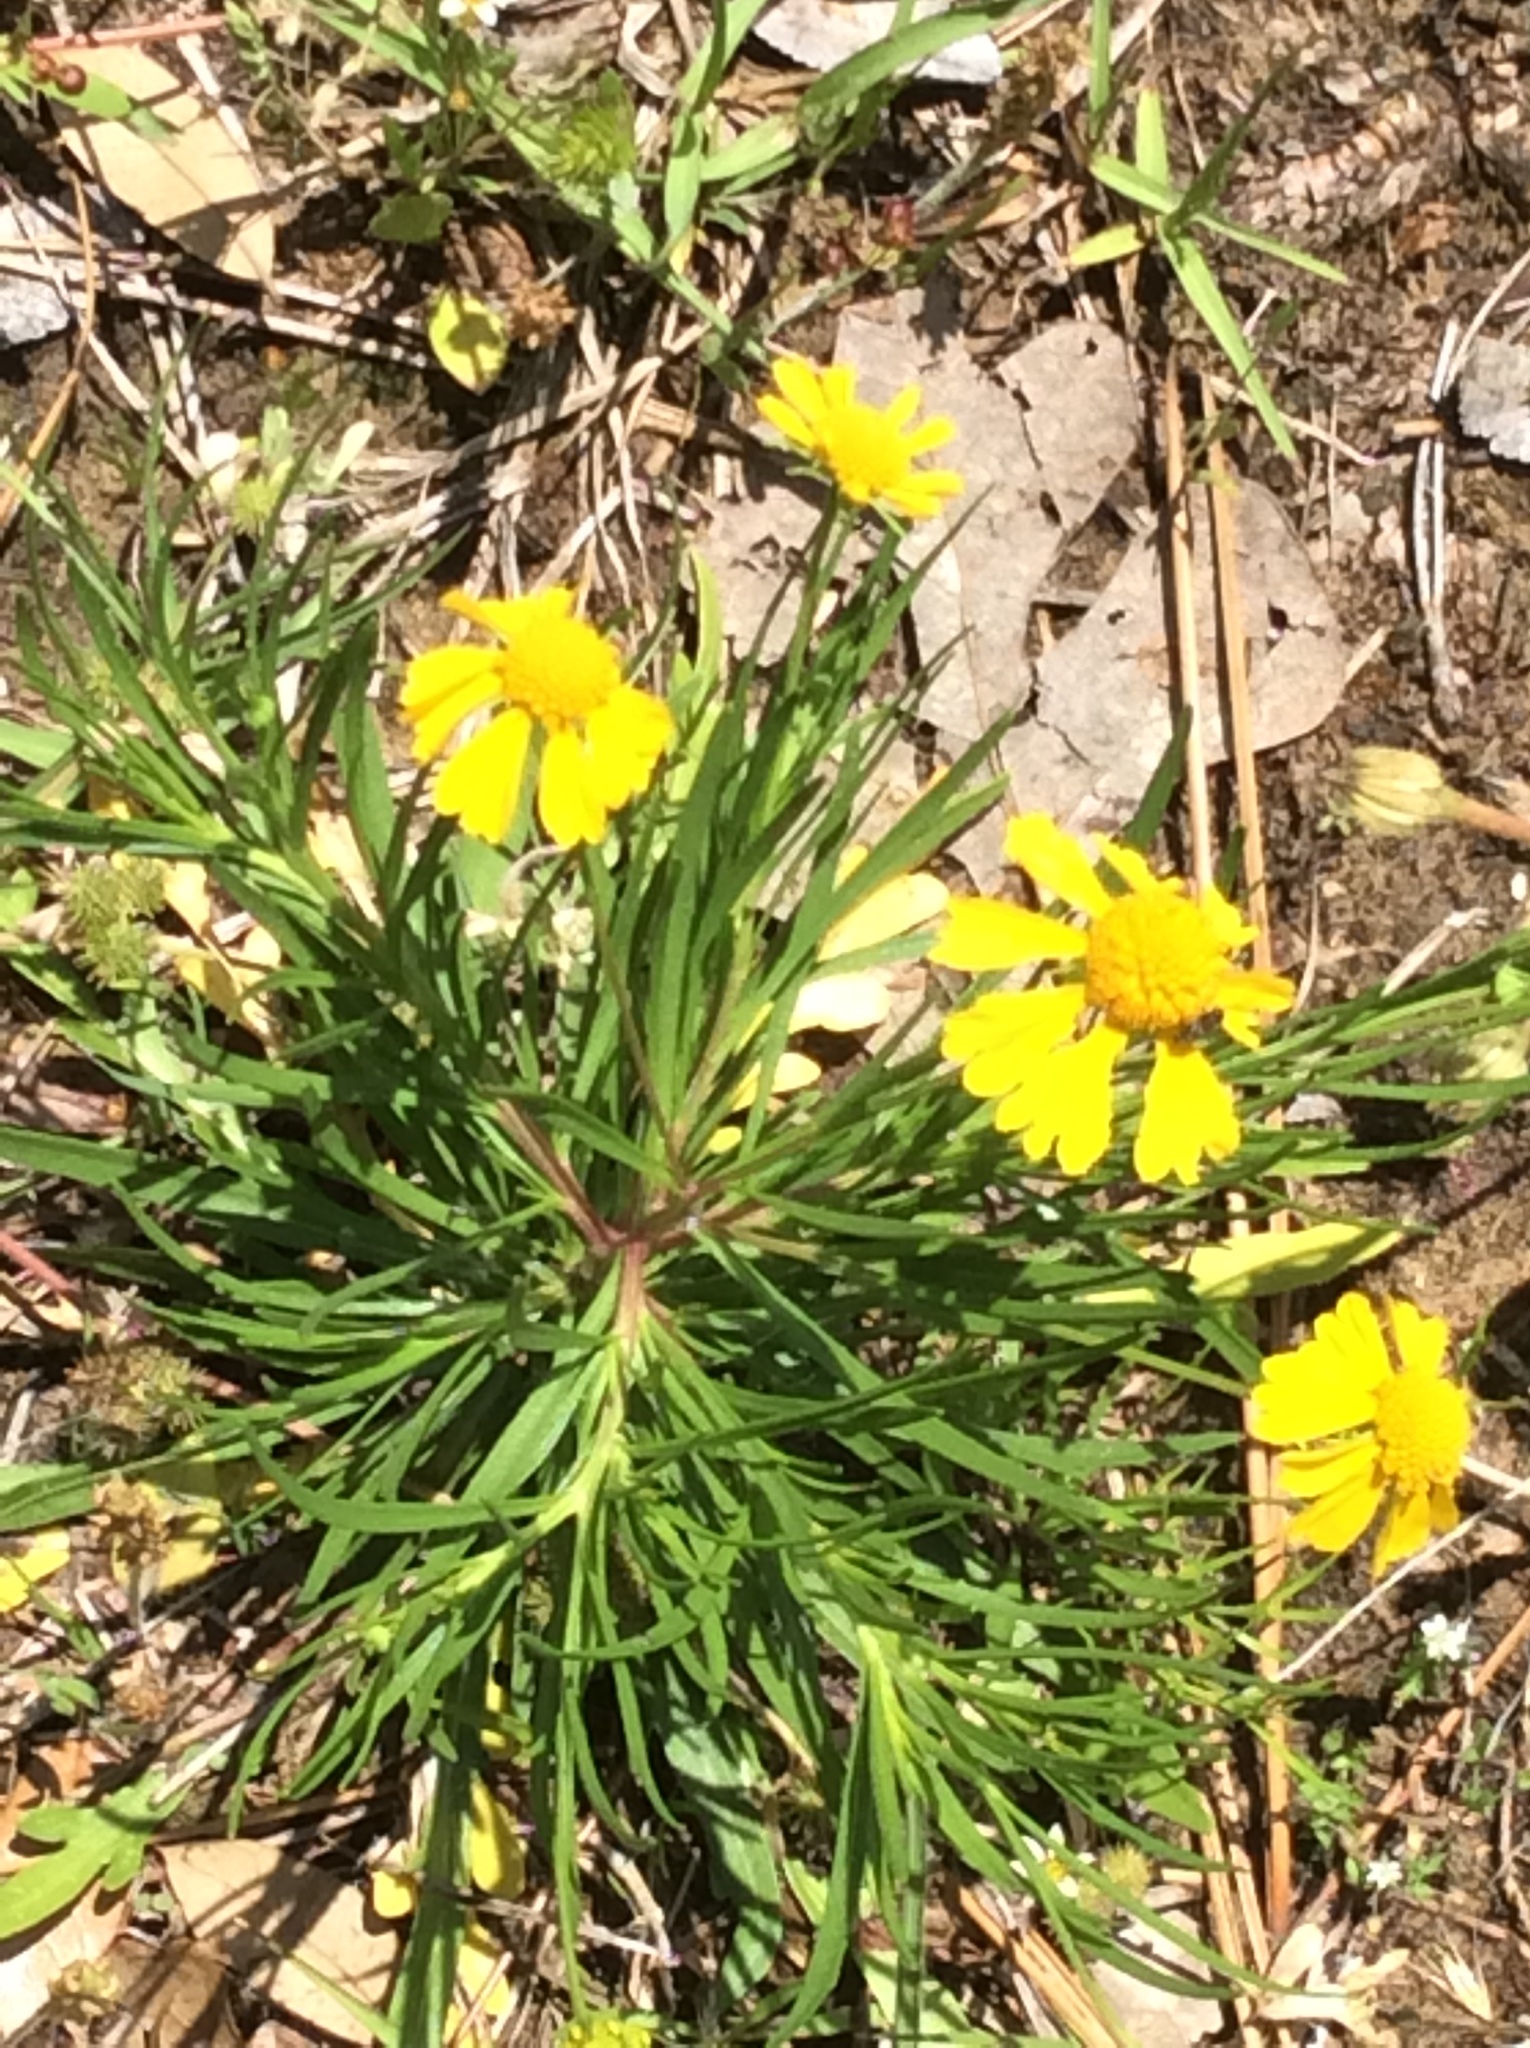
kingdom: Plantae
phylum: Tracheophyta
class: Magnoliopsida
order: Asterales
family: Asteraceae
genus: Helenium
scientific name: Helenium amarum
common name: Bitter sneezeweed
